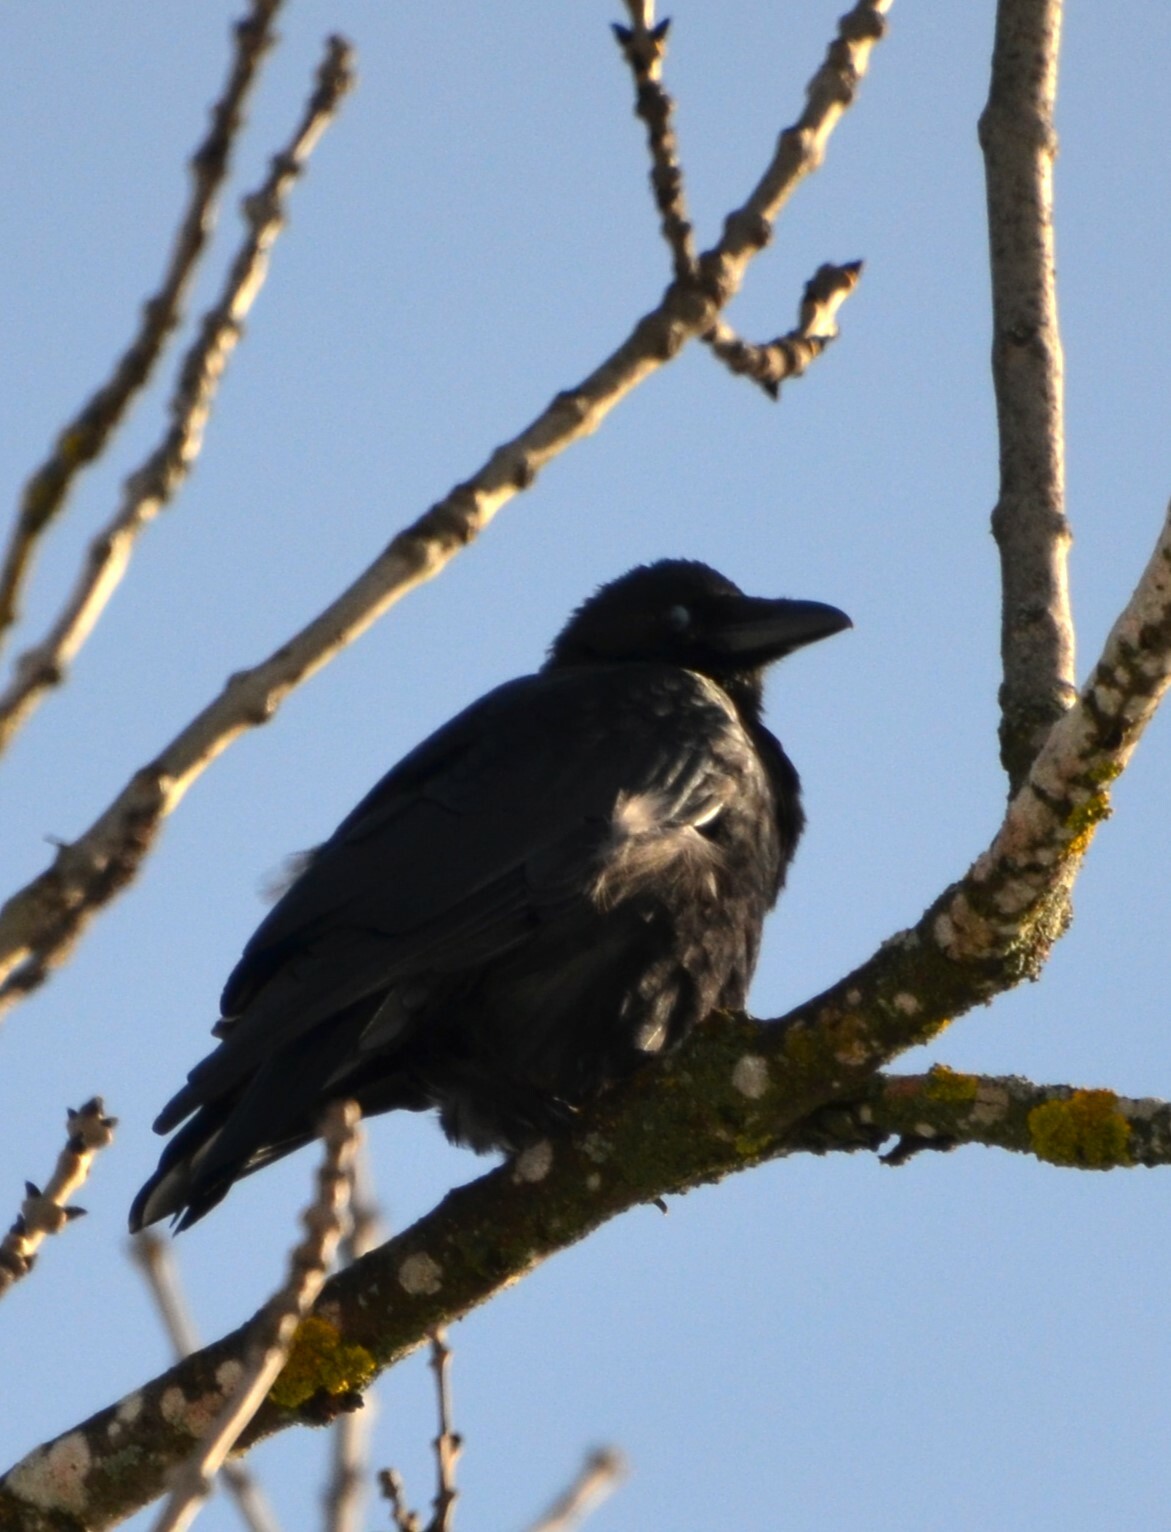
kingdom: Animalia
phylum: Chordata
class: Aves
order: Passeriformes
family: Corvidae
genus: Corvus
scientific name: Corvus
